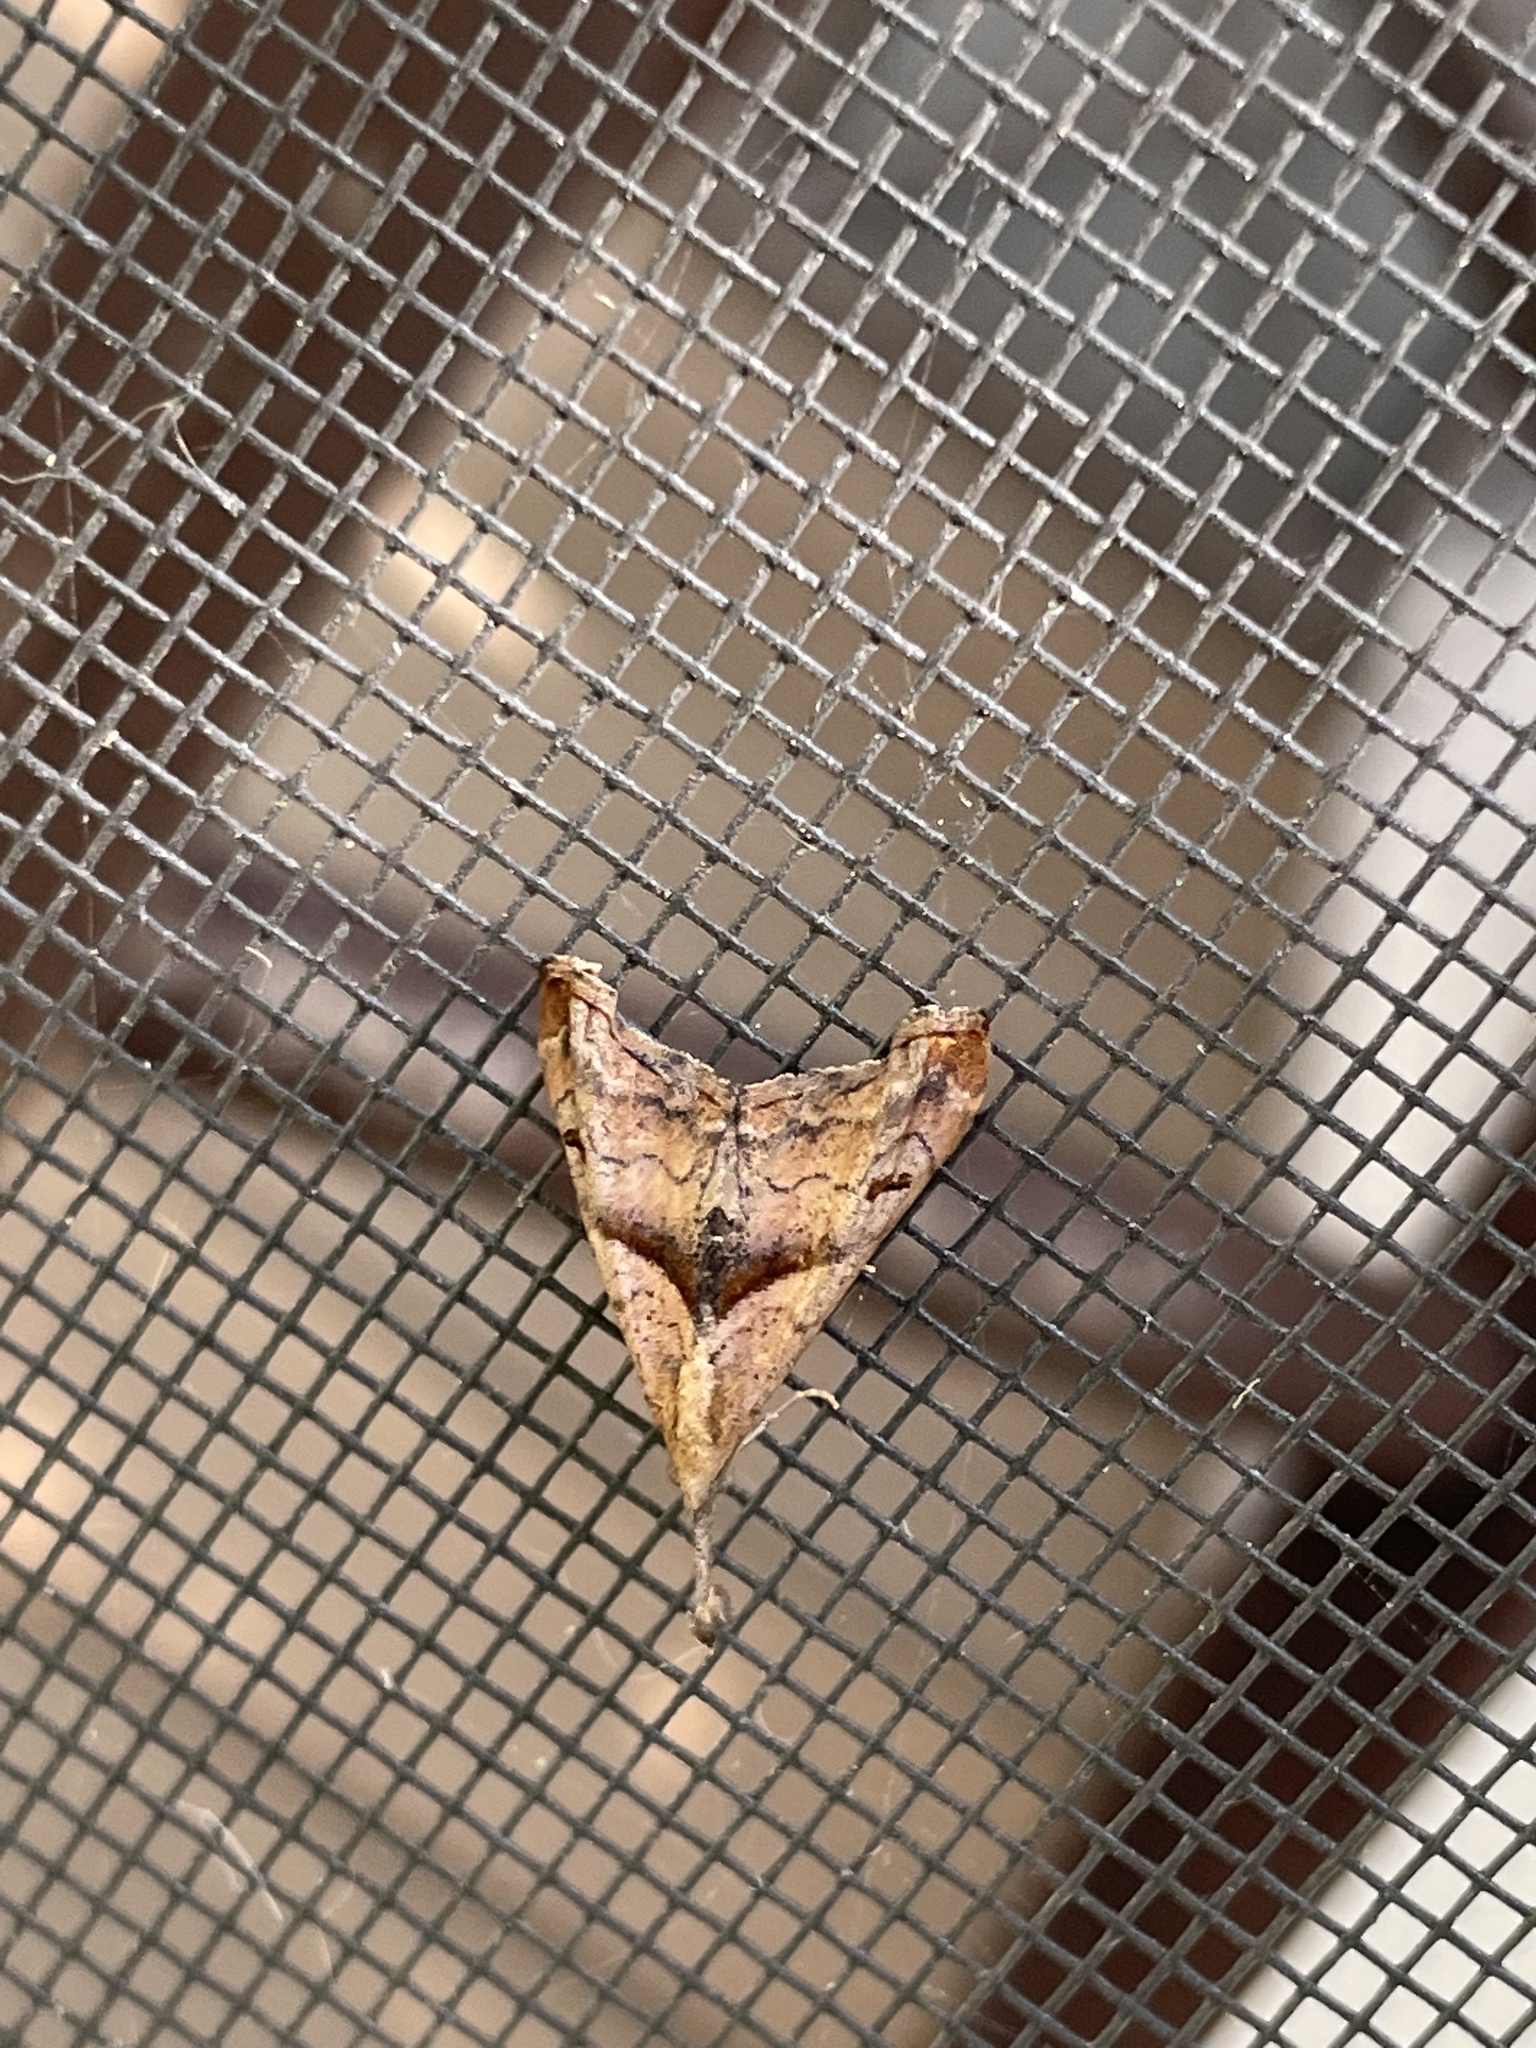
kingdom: Animalia
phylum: Arthropoda
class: Insecta
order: Lepidoptera
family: Erebidae
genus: Palthis
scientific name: Palthis angulalis
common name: Dark-spotted palthis moth
